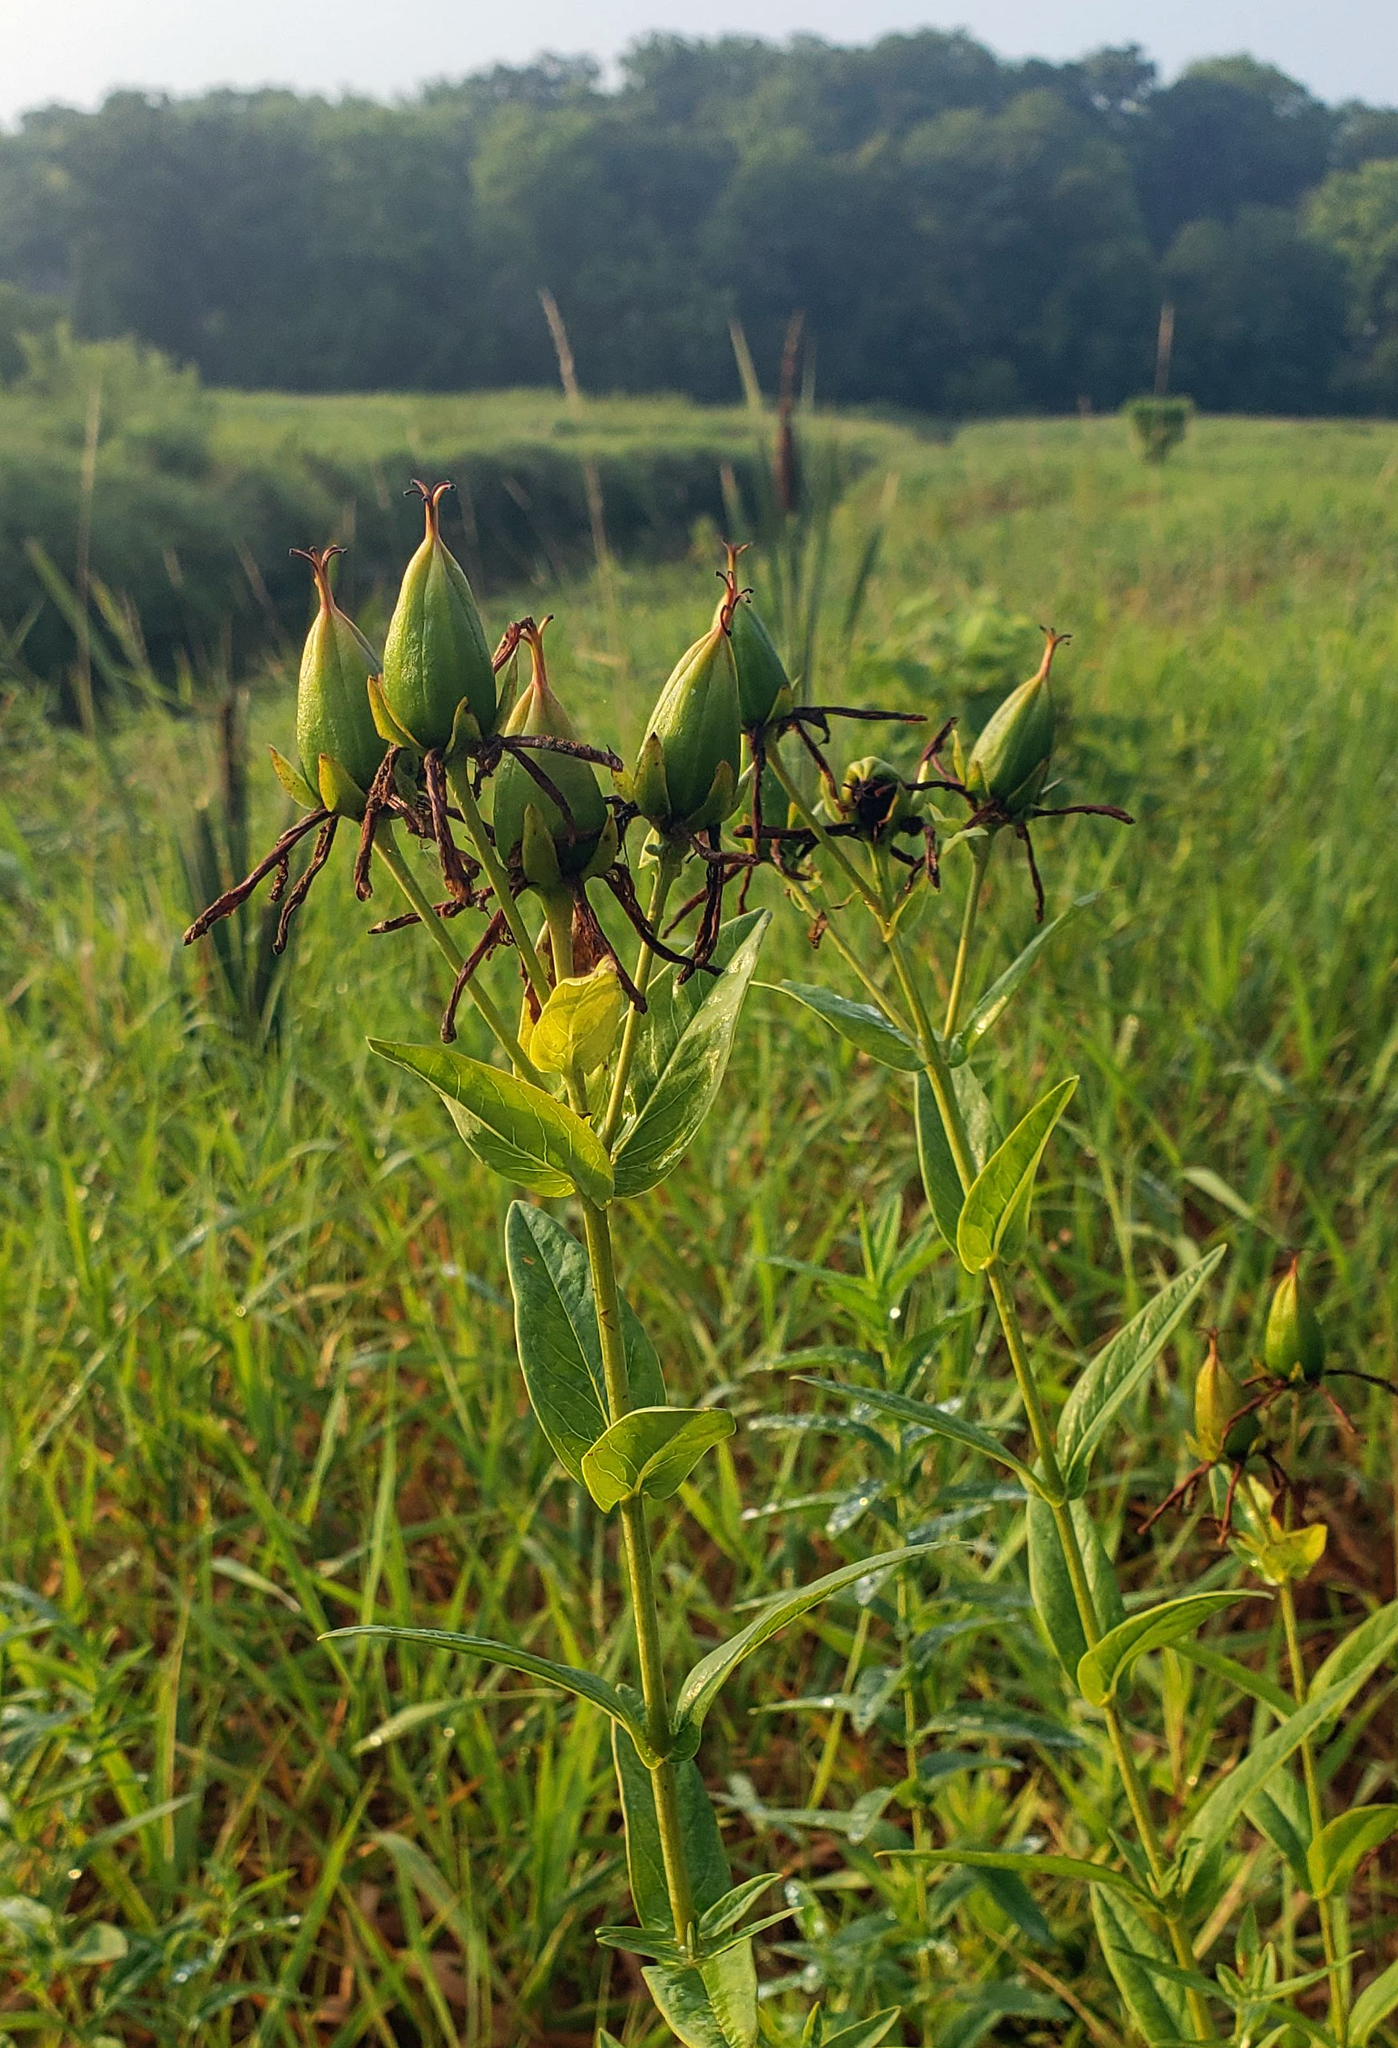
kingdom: Plantae
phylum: Tracheophyta
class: Magnoliopsida
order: Malpighiales
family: Hypericaceae
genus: Hypericum
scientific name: Hypericum ascyron
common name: Giant st. john's-wort
